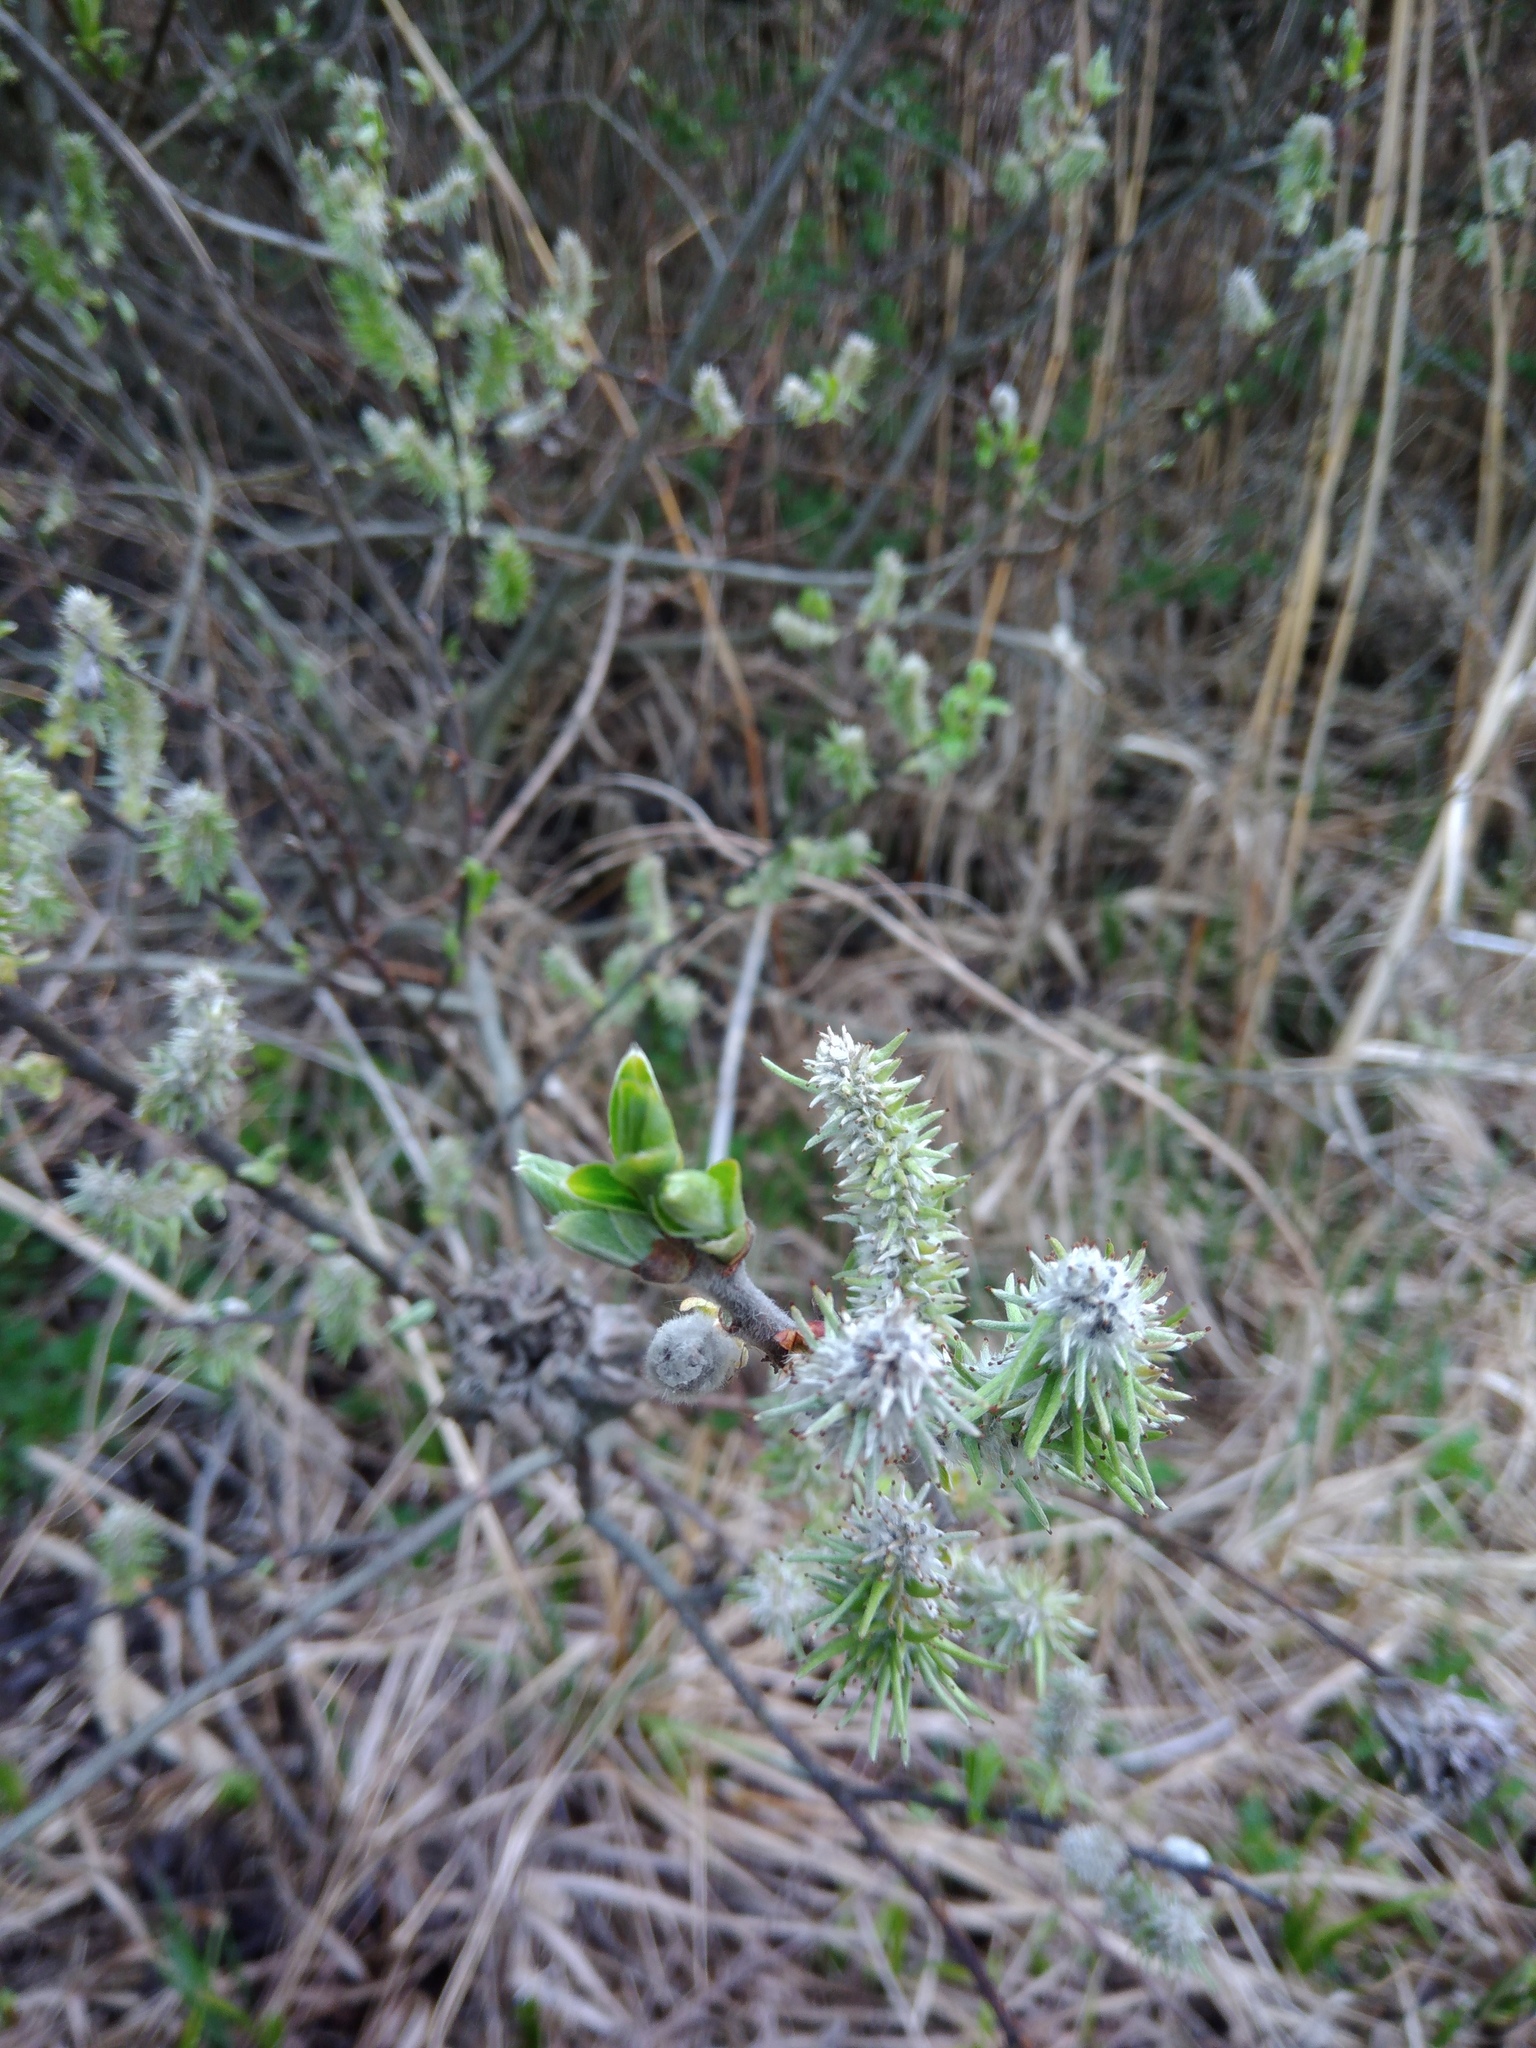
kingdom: Plantae
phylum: Tracheophyta
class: Magnoliopsida
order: Malpighiales
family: Salicaceae
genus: Salix
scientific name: Salix cinerea
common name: Common sallow
